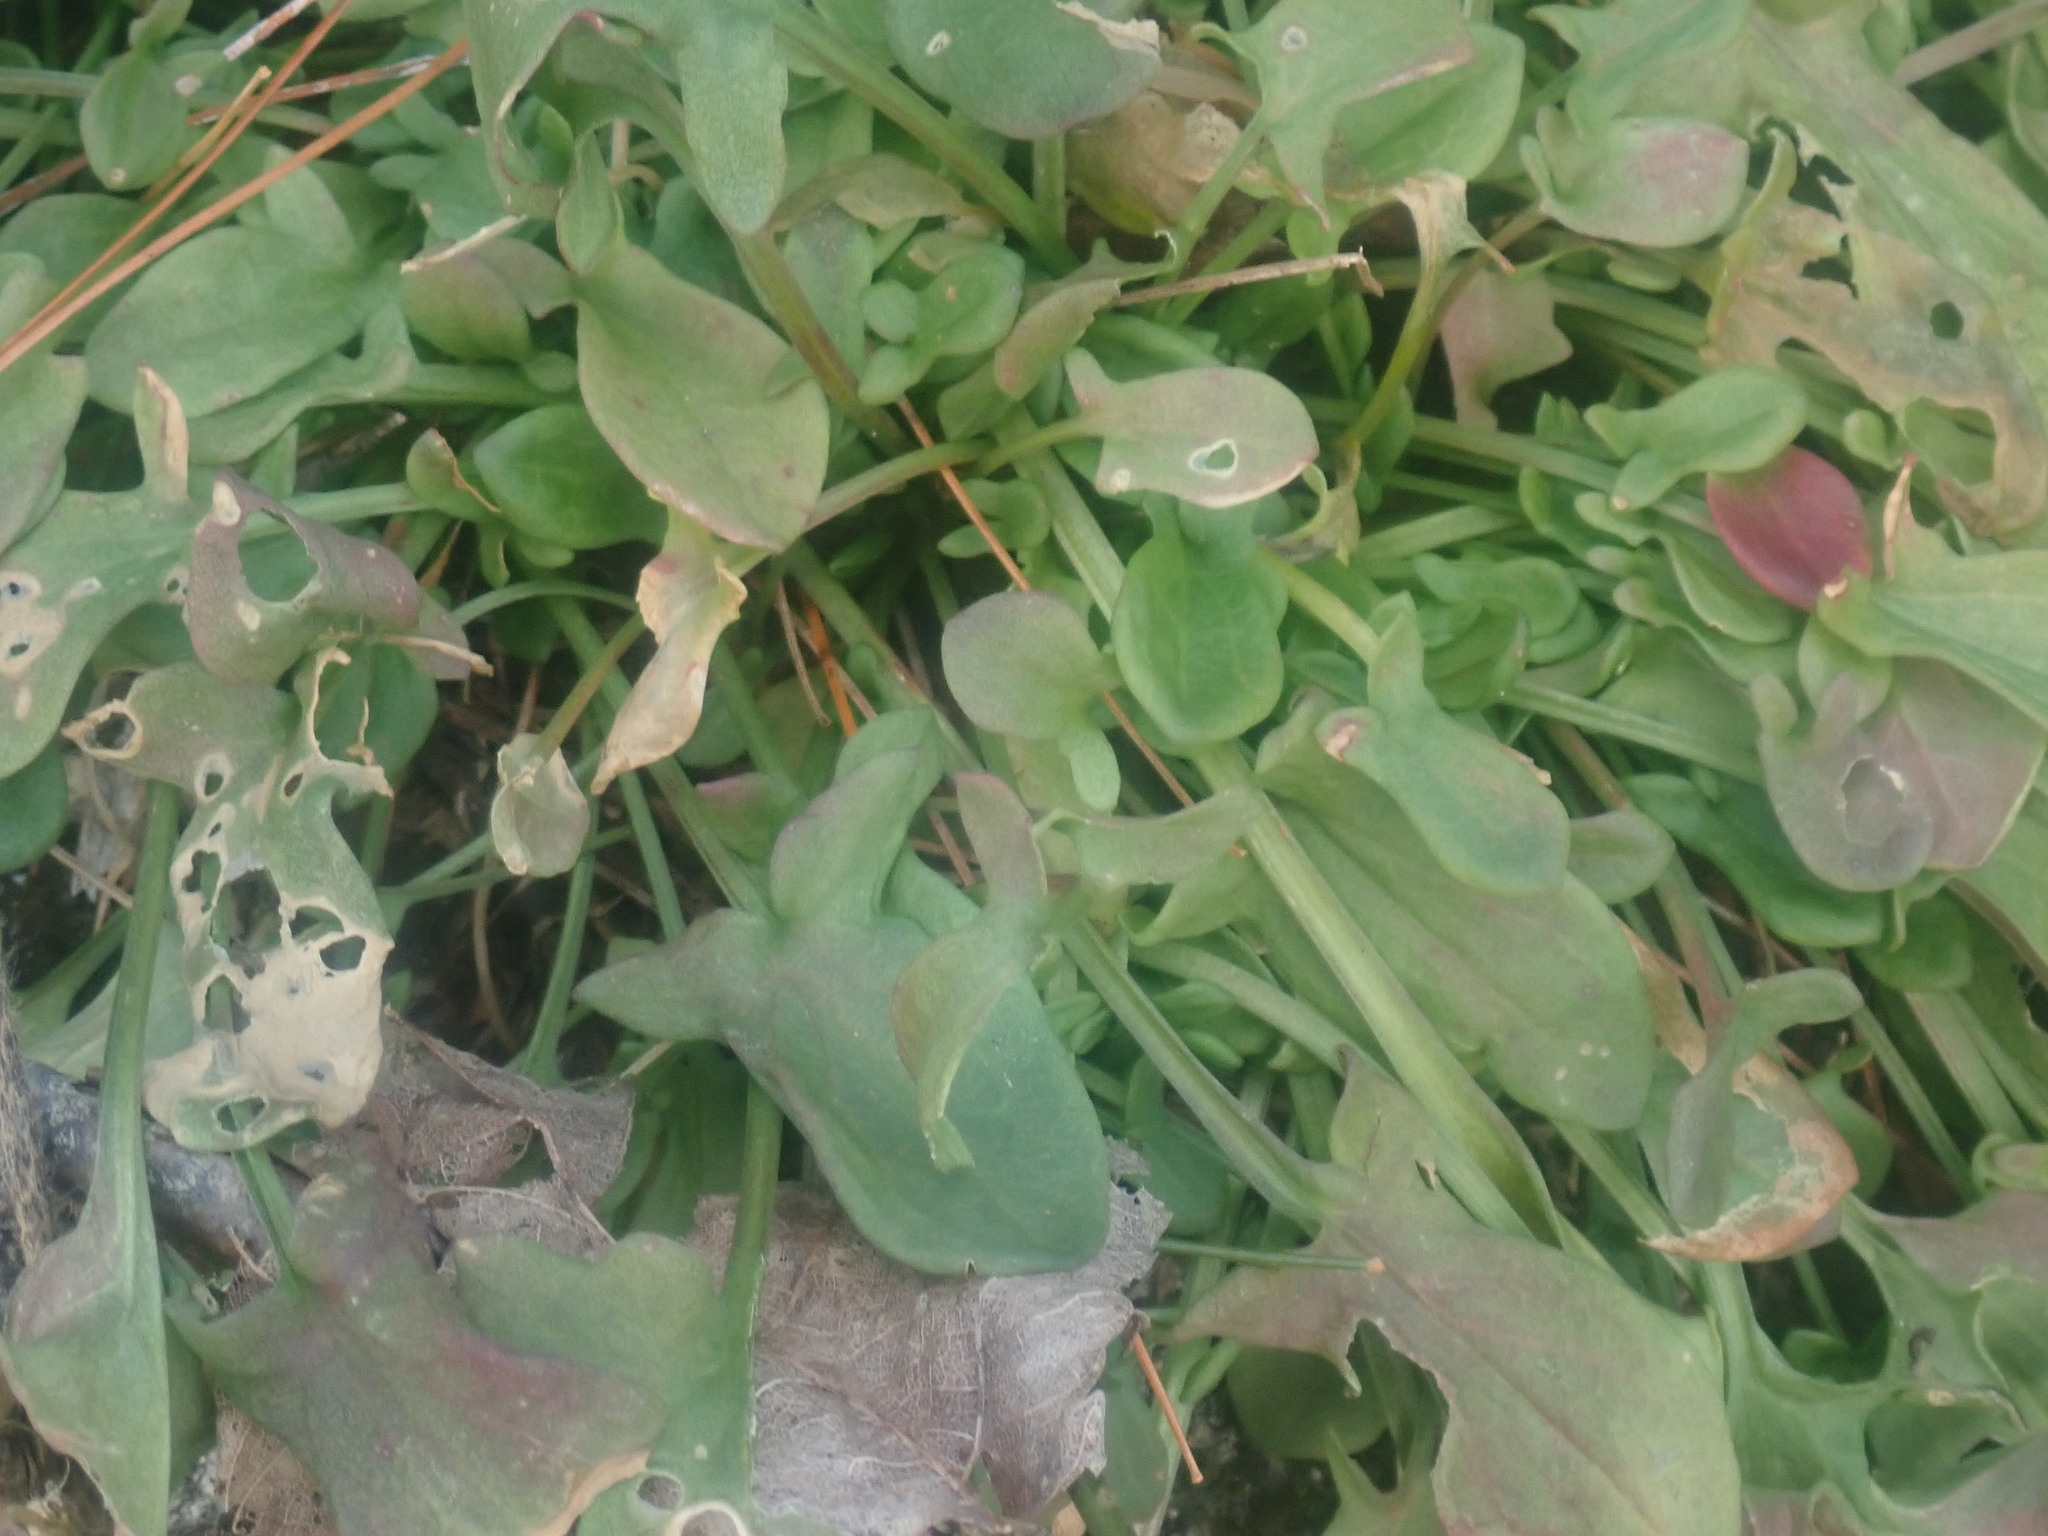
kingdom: Plantae
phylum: Tracheophyta
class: Magnoliopsida
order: Caryophyllales
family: Polygonaceae
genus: Rumex
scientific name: Rumex acetosella
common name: Common sheep sorrel
